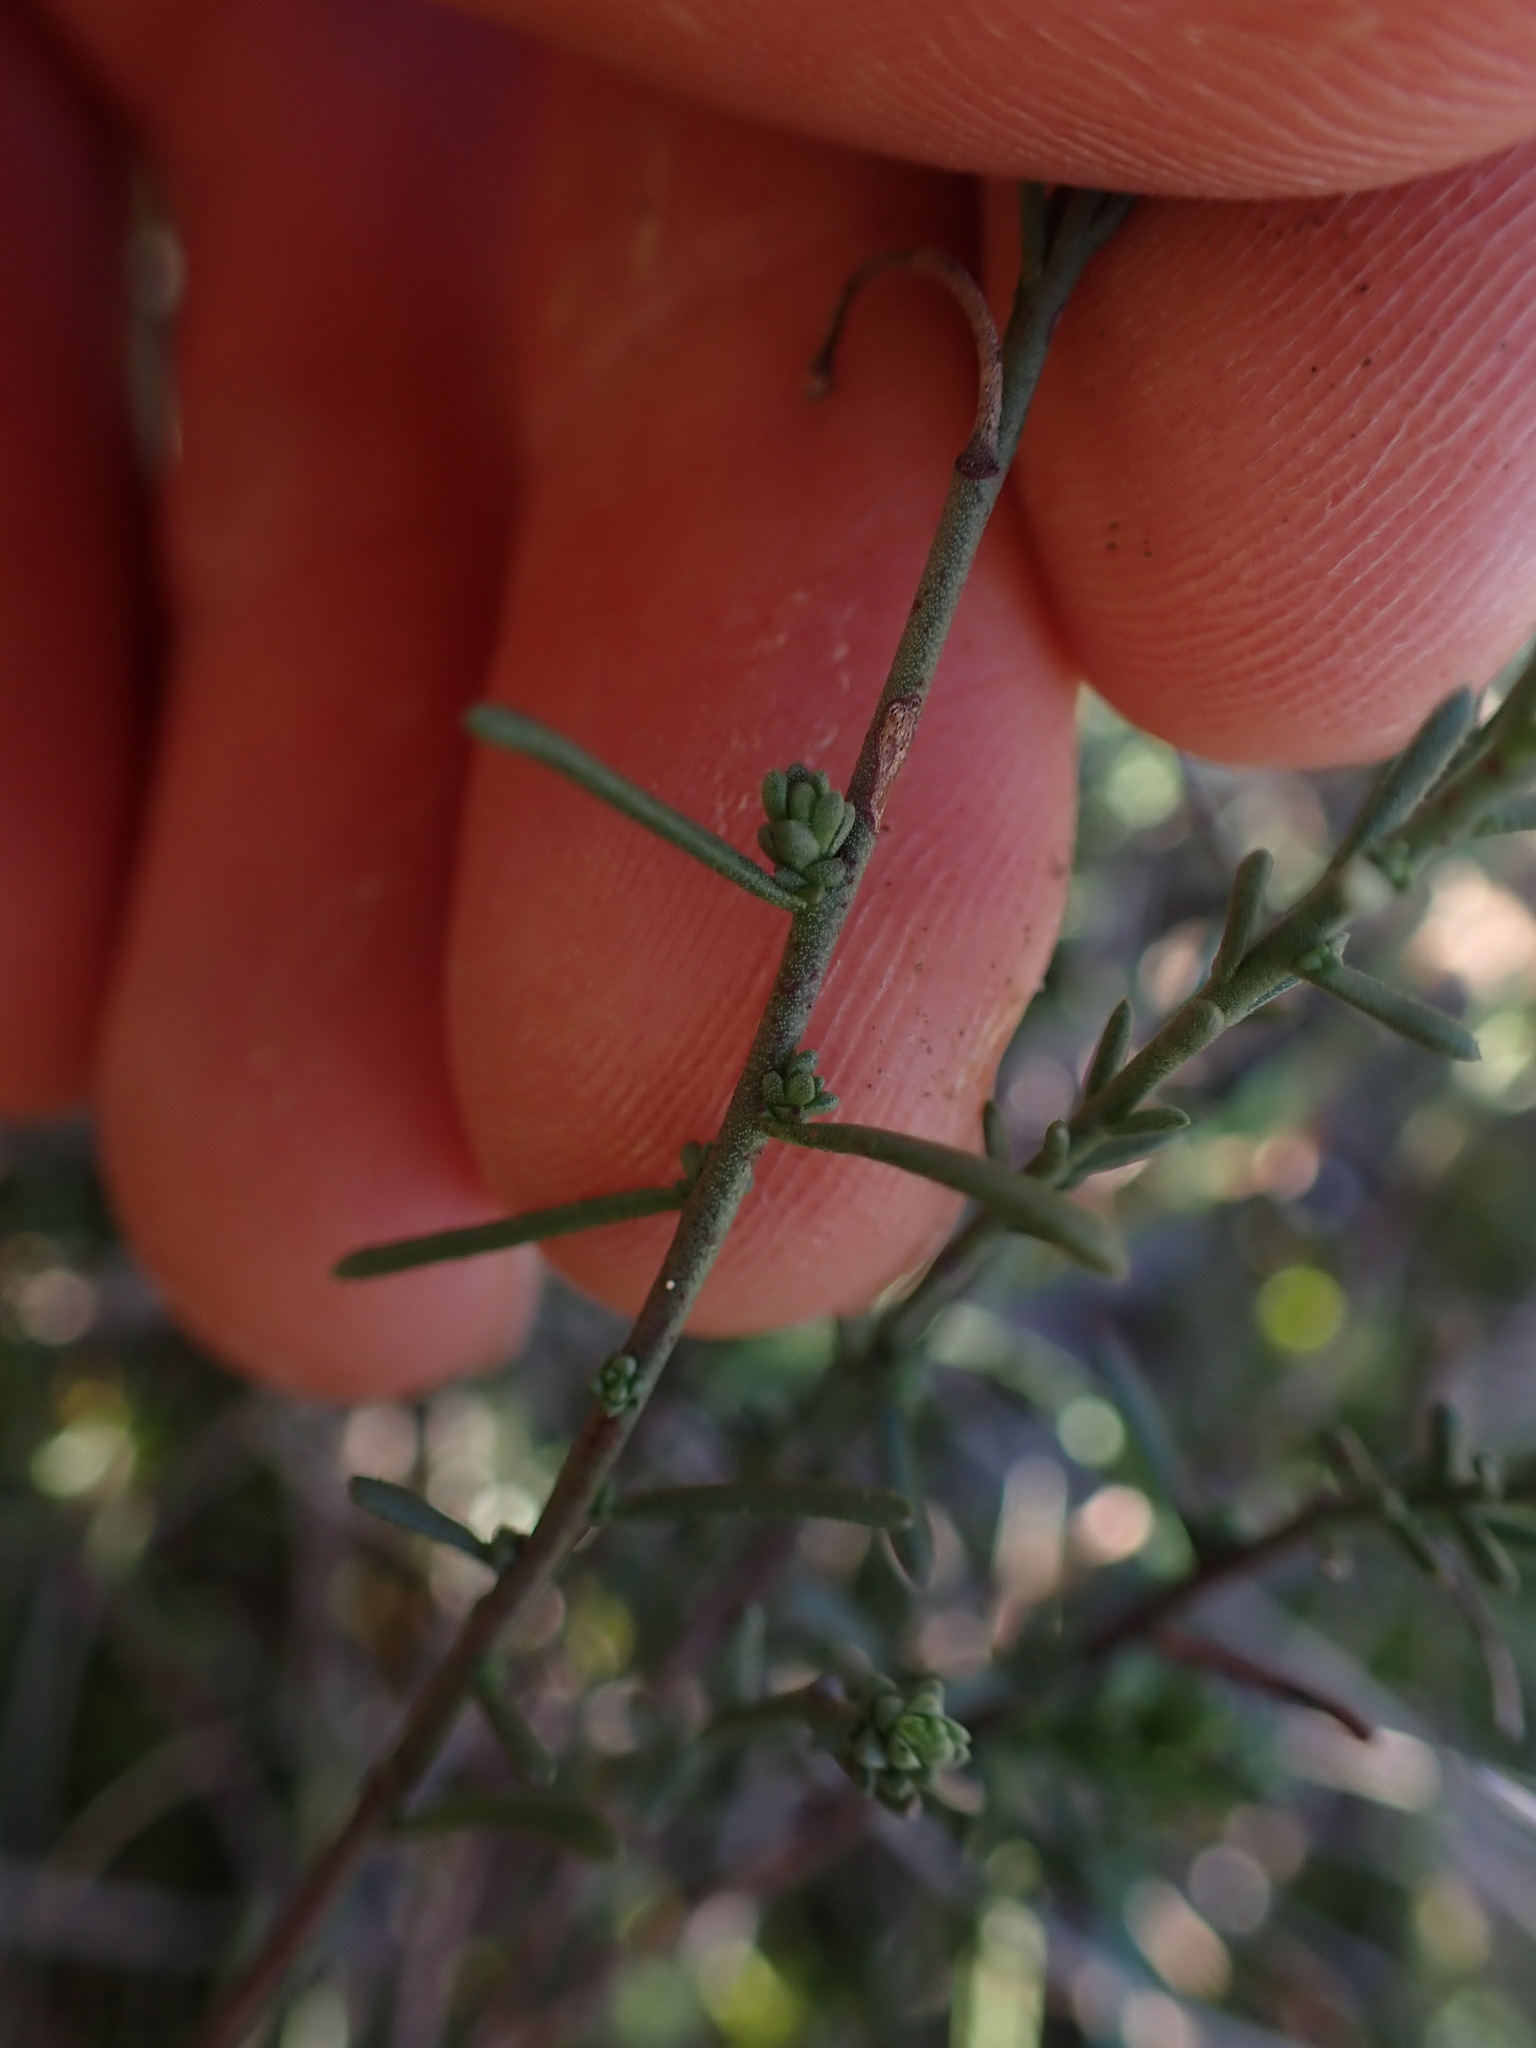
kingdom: Plantae
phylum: Tracheophyta
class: Magnoliopsida
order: Malvales
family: Cistaceae
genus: Fumana
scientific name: Fumana ericifolia
